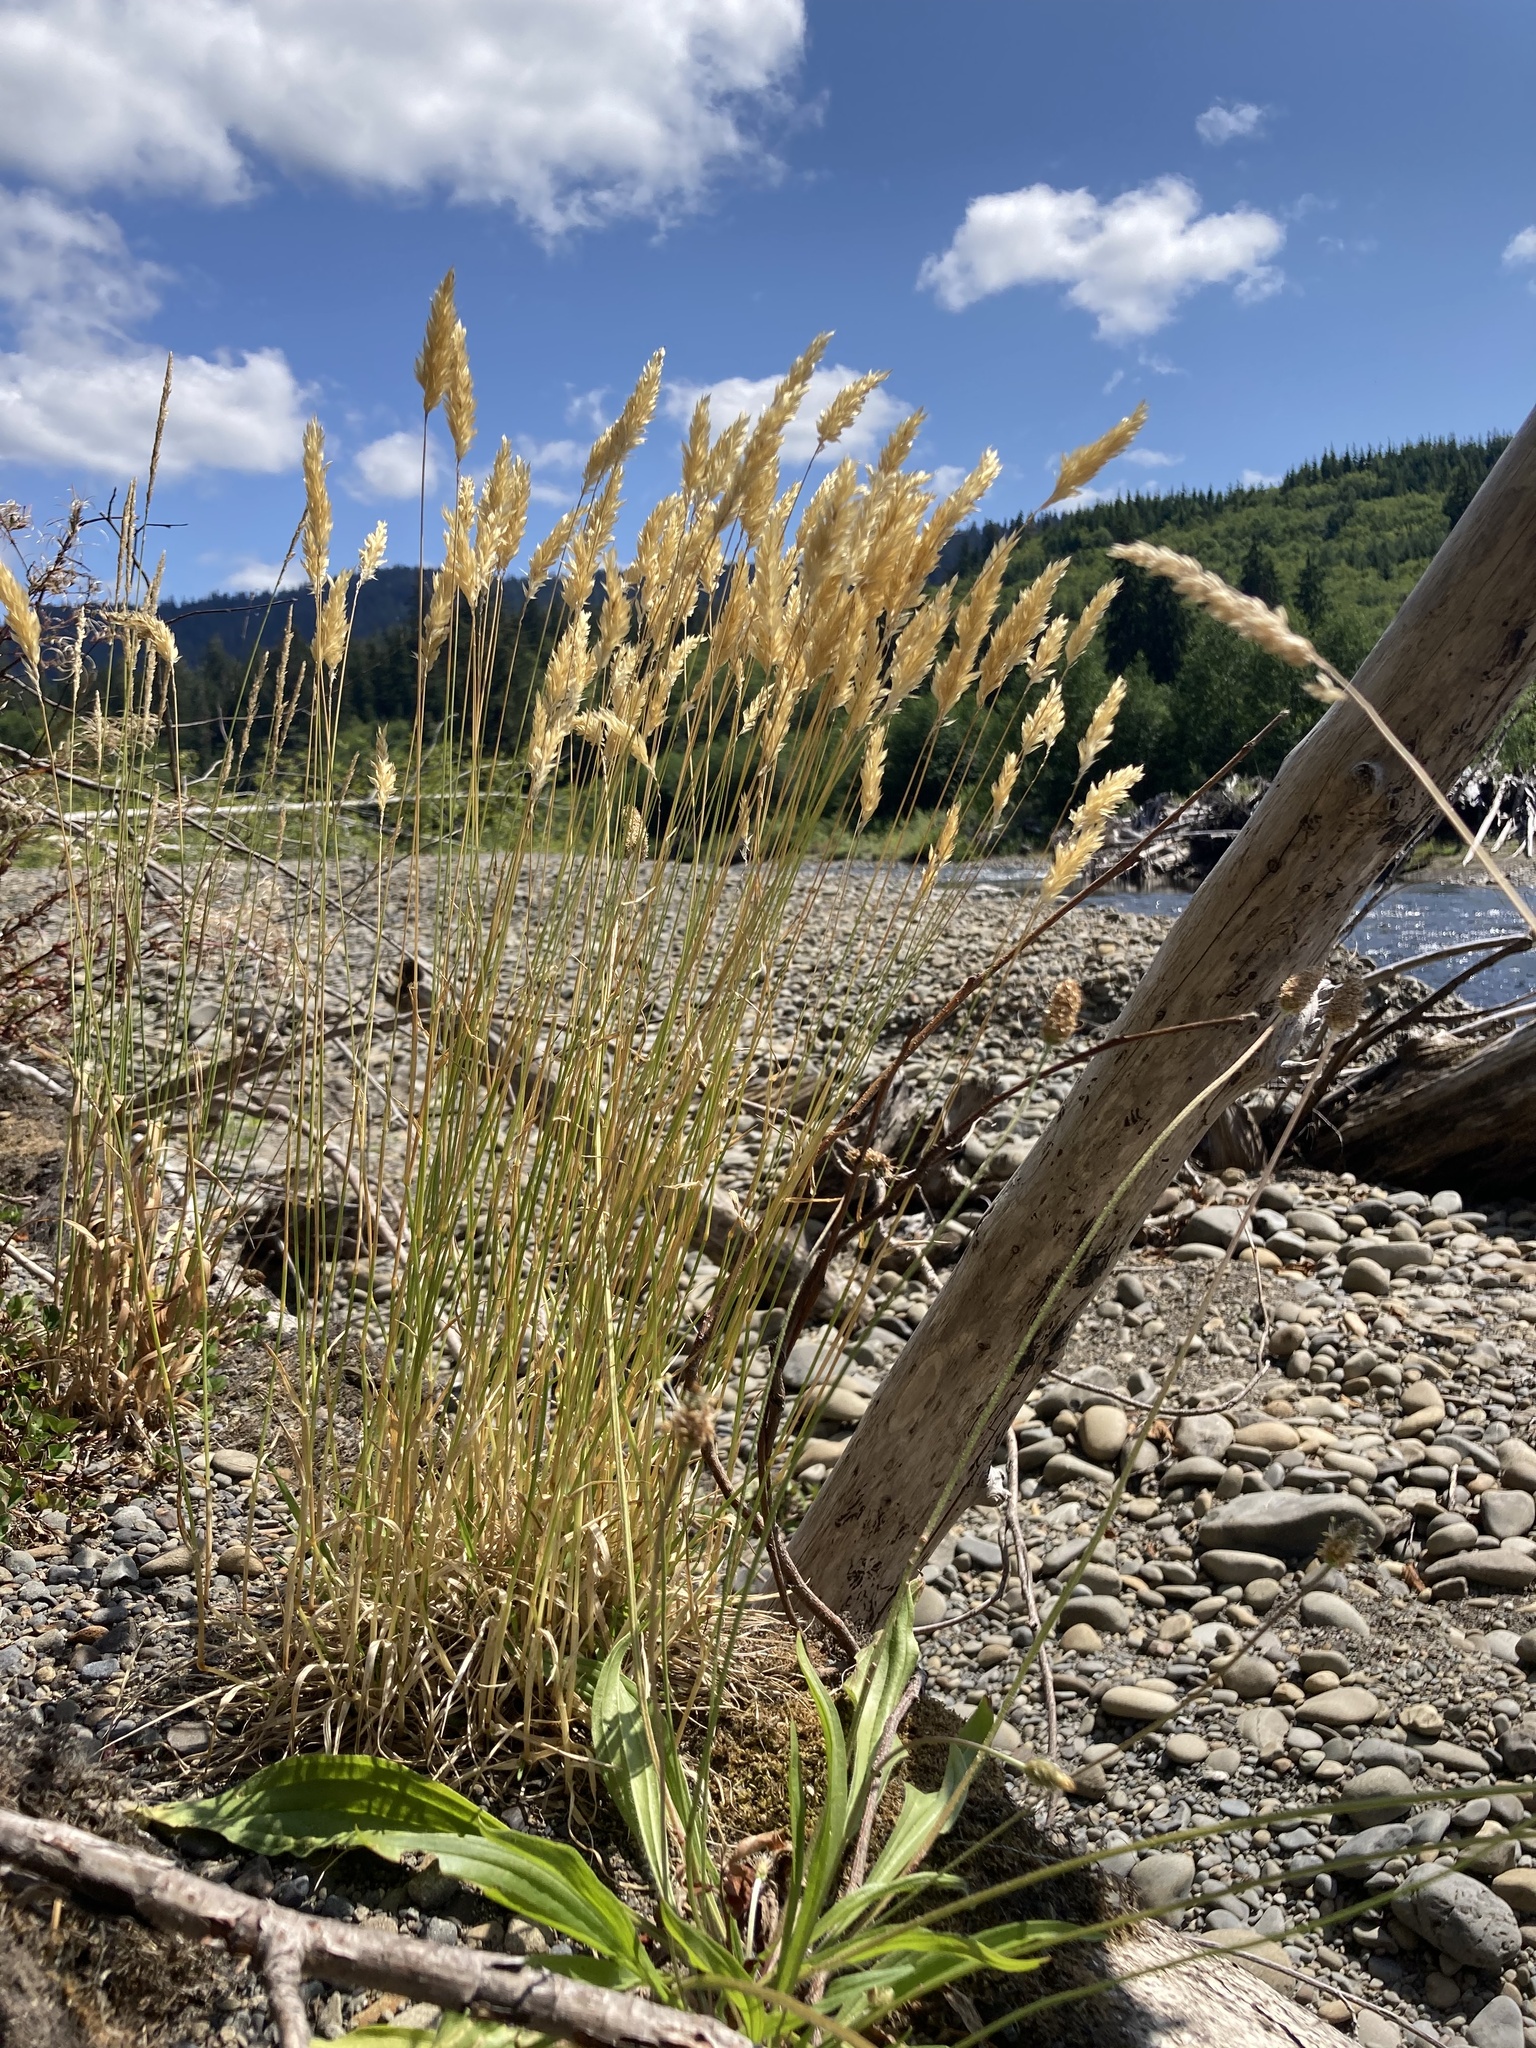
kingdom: Plantae
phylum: Tracheophyta
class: Liliopsida
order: Poales
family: Poaceae
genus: Anthoxanthum
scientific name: Anthoxanthum odoratum
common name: Sweet vernalgrass
